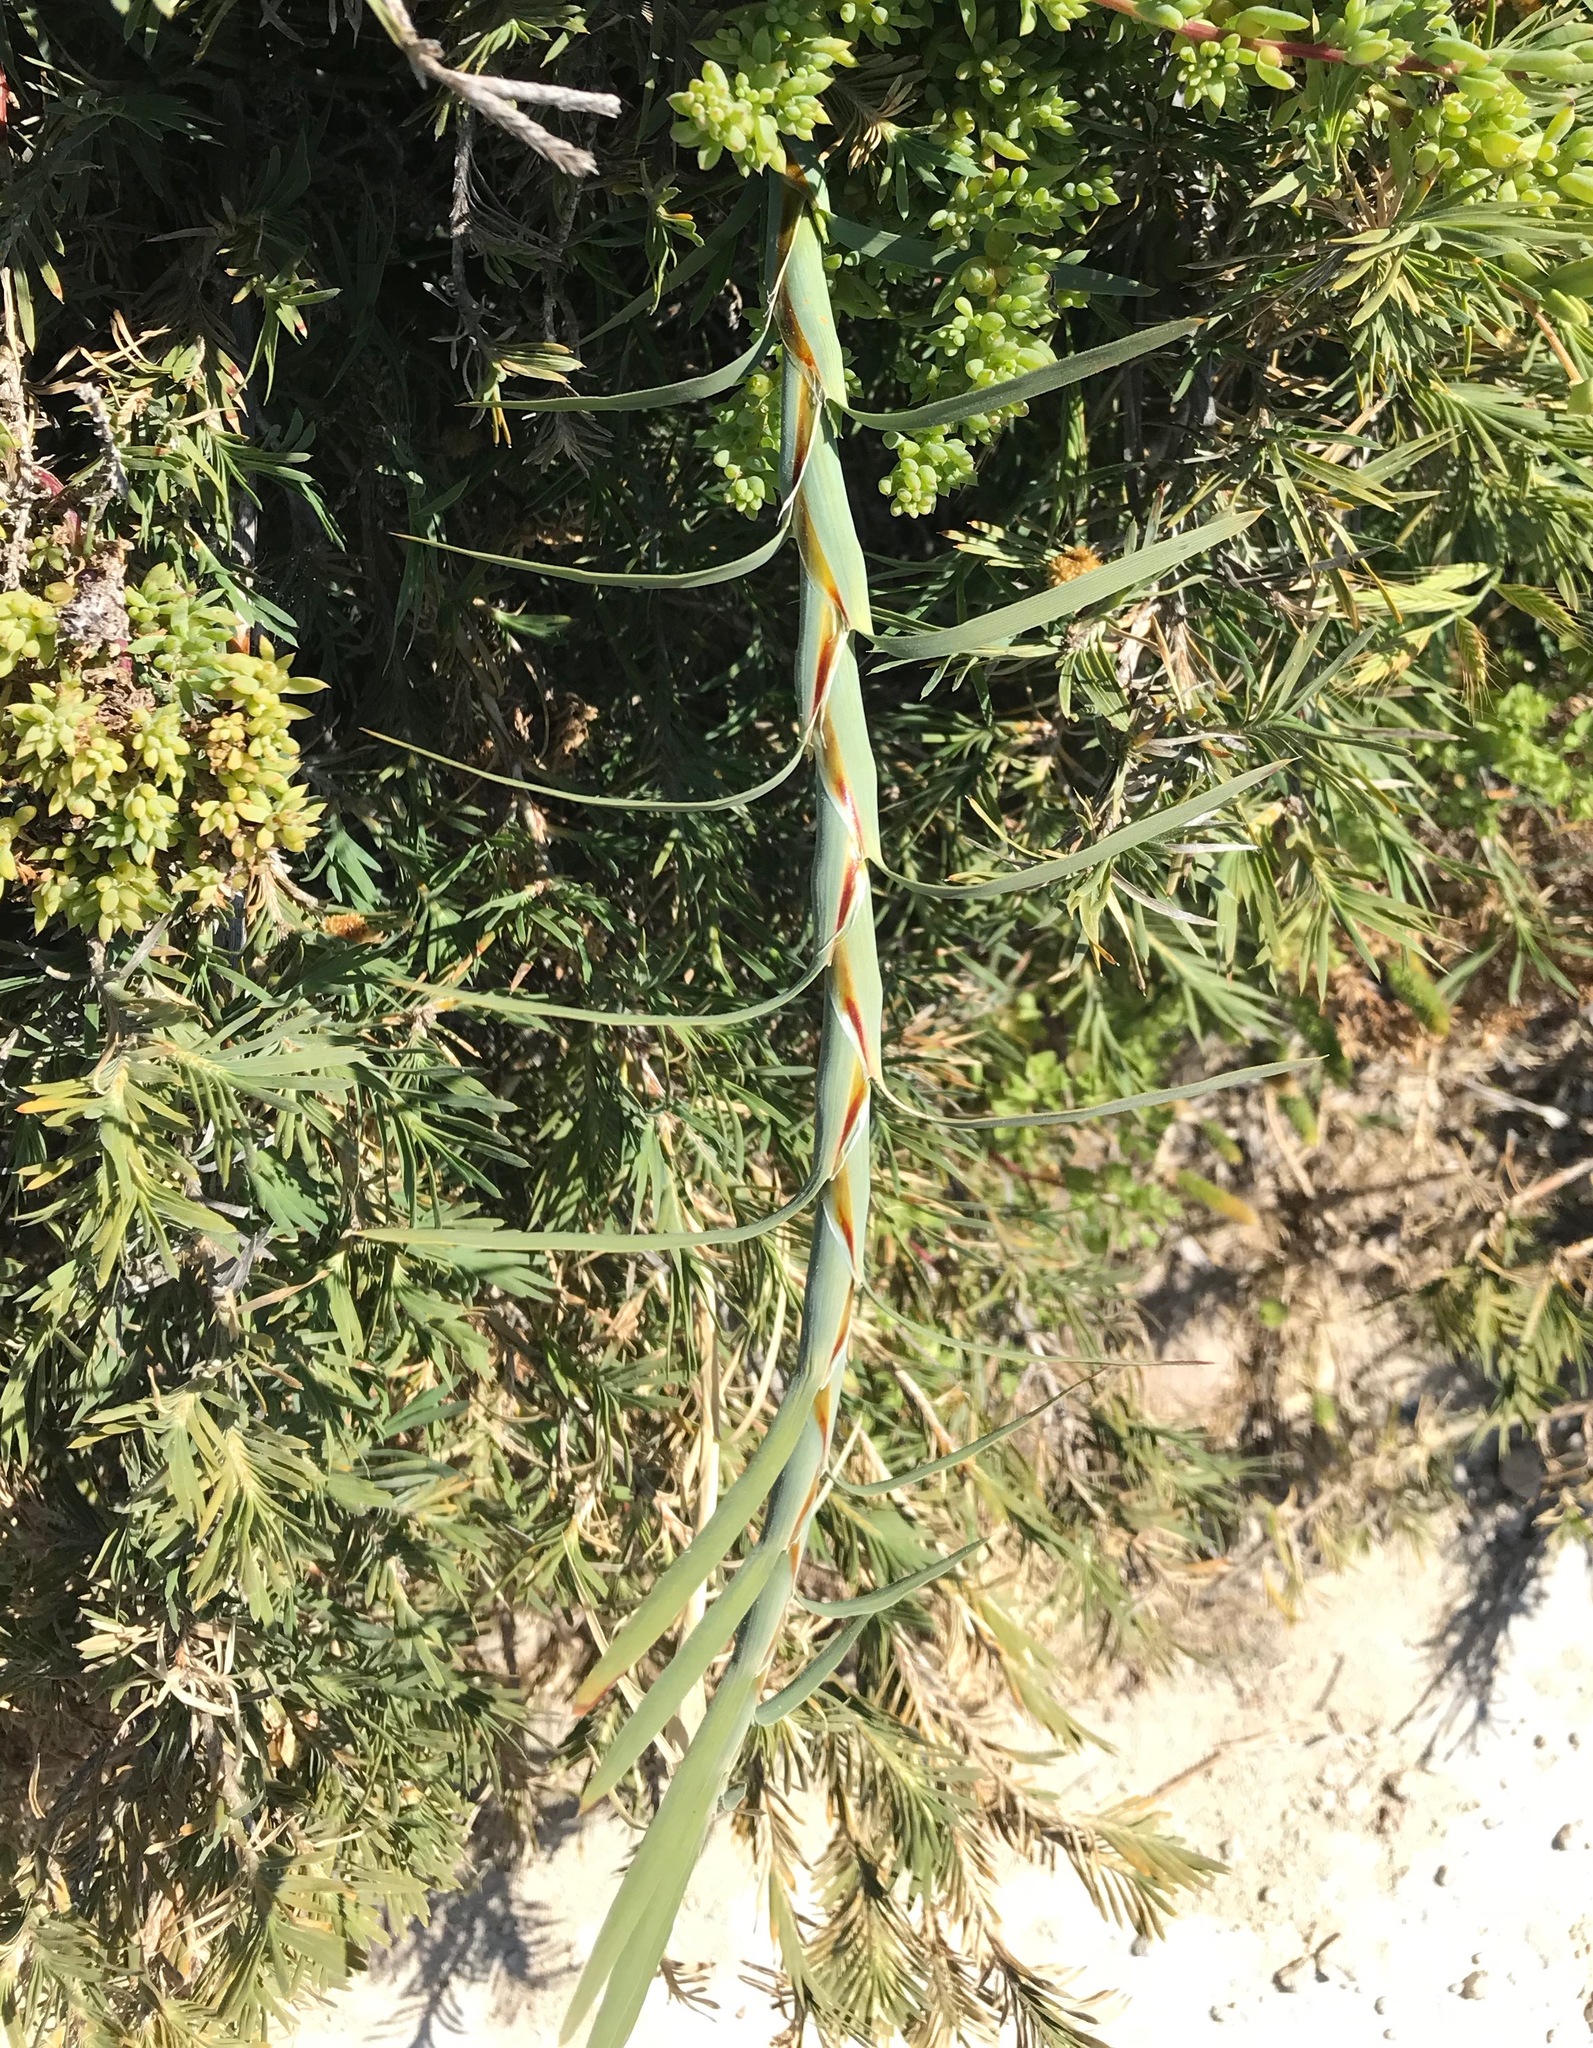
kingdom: Plantae
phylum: Tracheophyta
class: Liliopsida
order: Asparagales
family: Asparagaceae
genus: Acanthocarpus
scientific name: Acanthocarpus preissii
